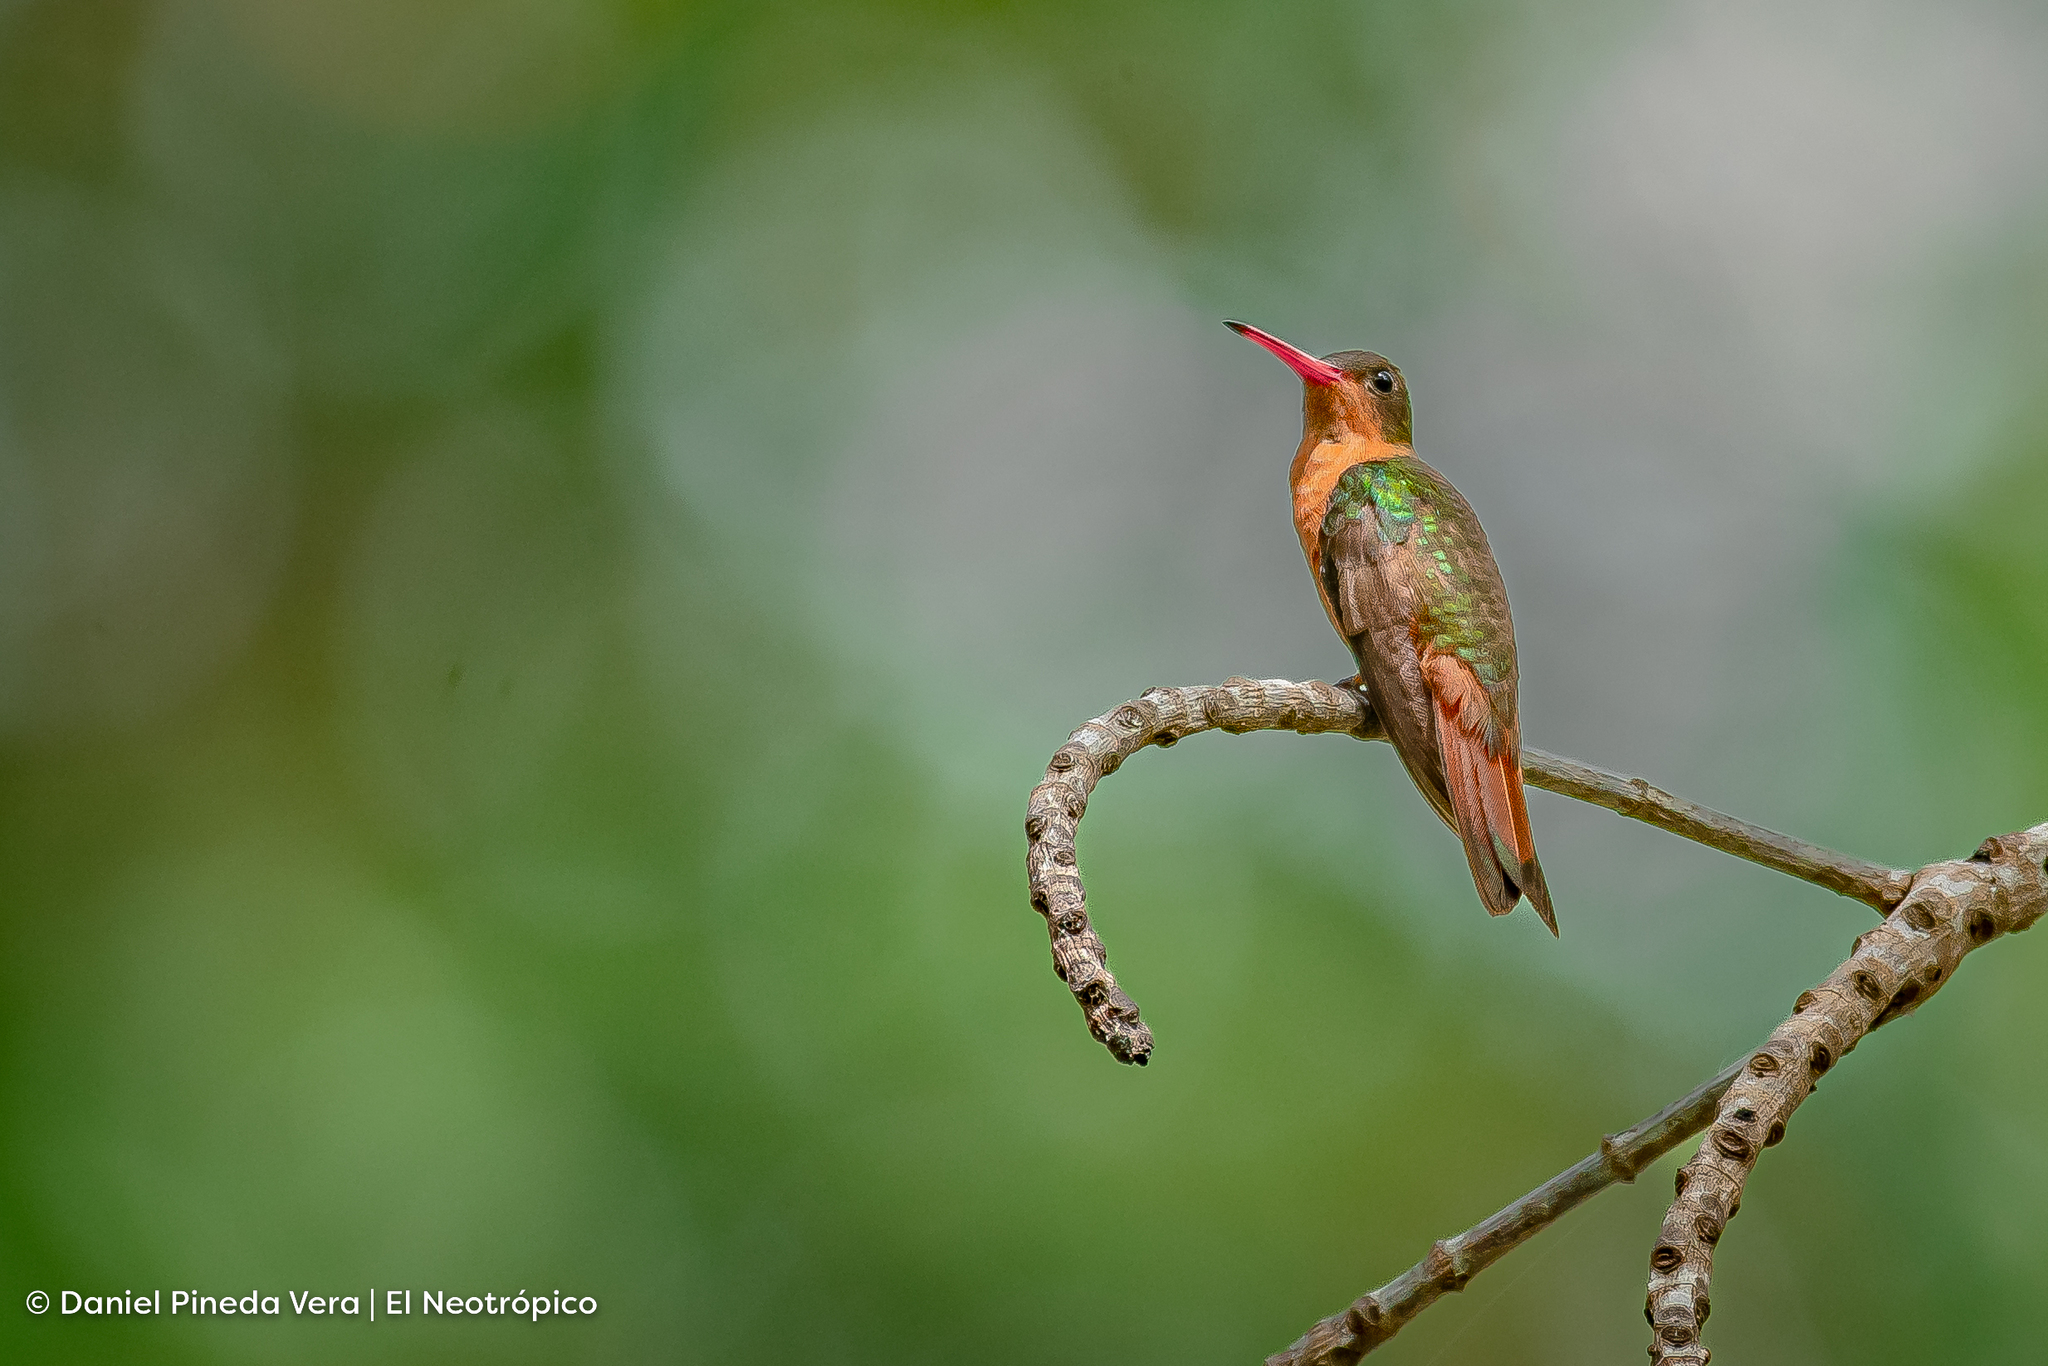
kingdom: Animalia
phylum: Chordata
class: Aves
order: Apodiformes
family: Trochilidae
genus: Amazilia
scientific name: Amazilia rutila
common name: Cinnamon hummingbird
